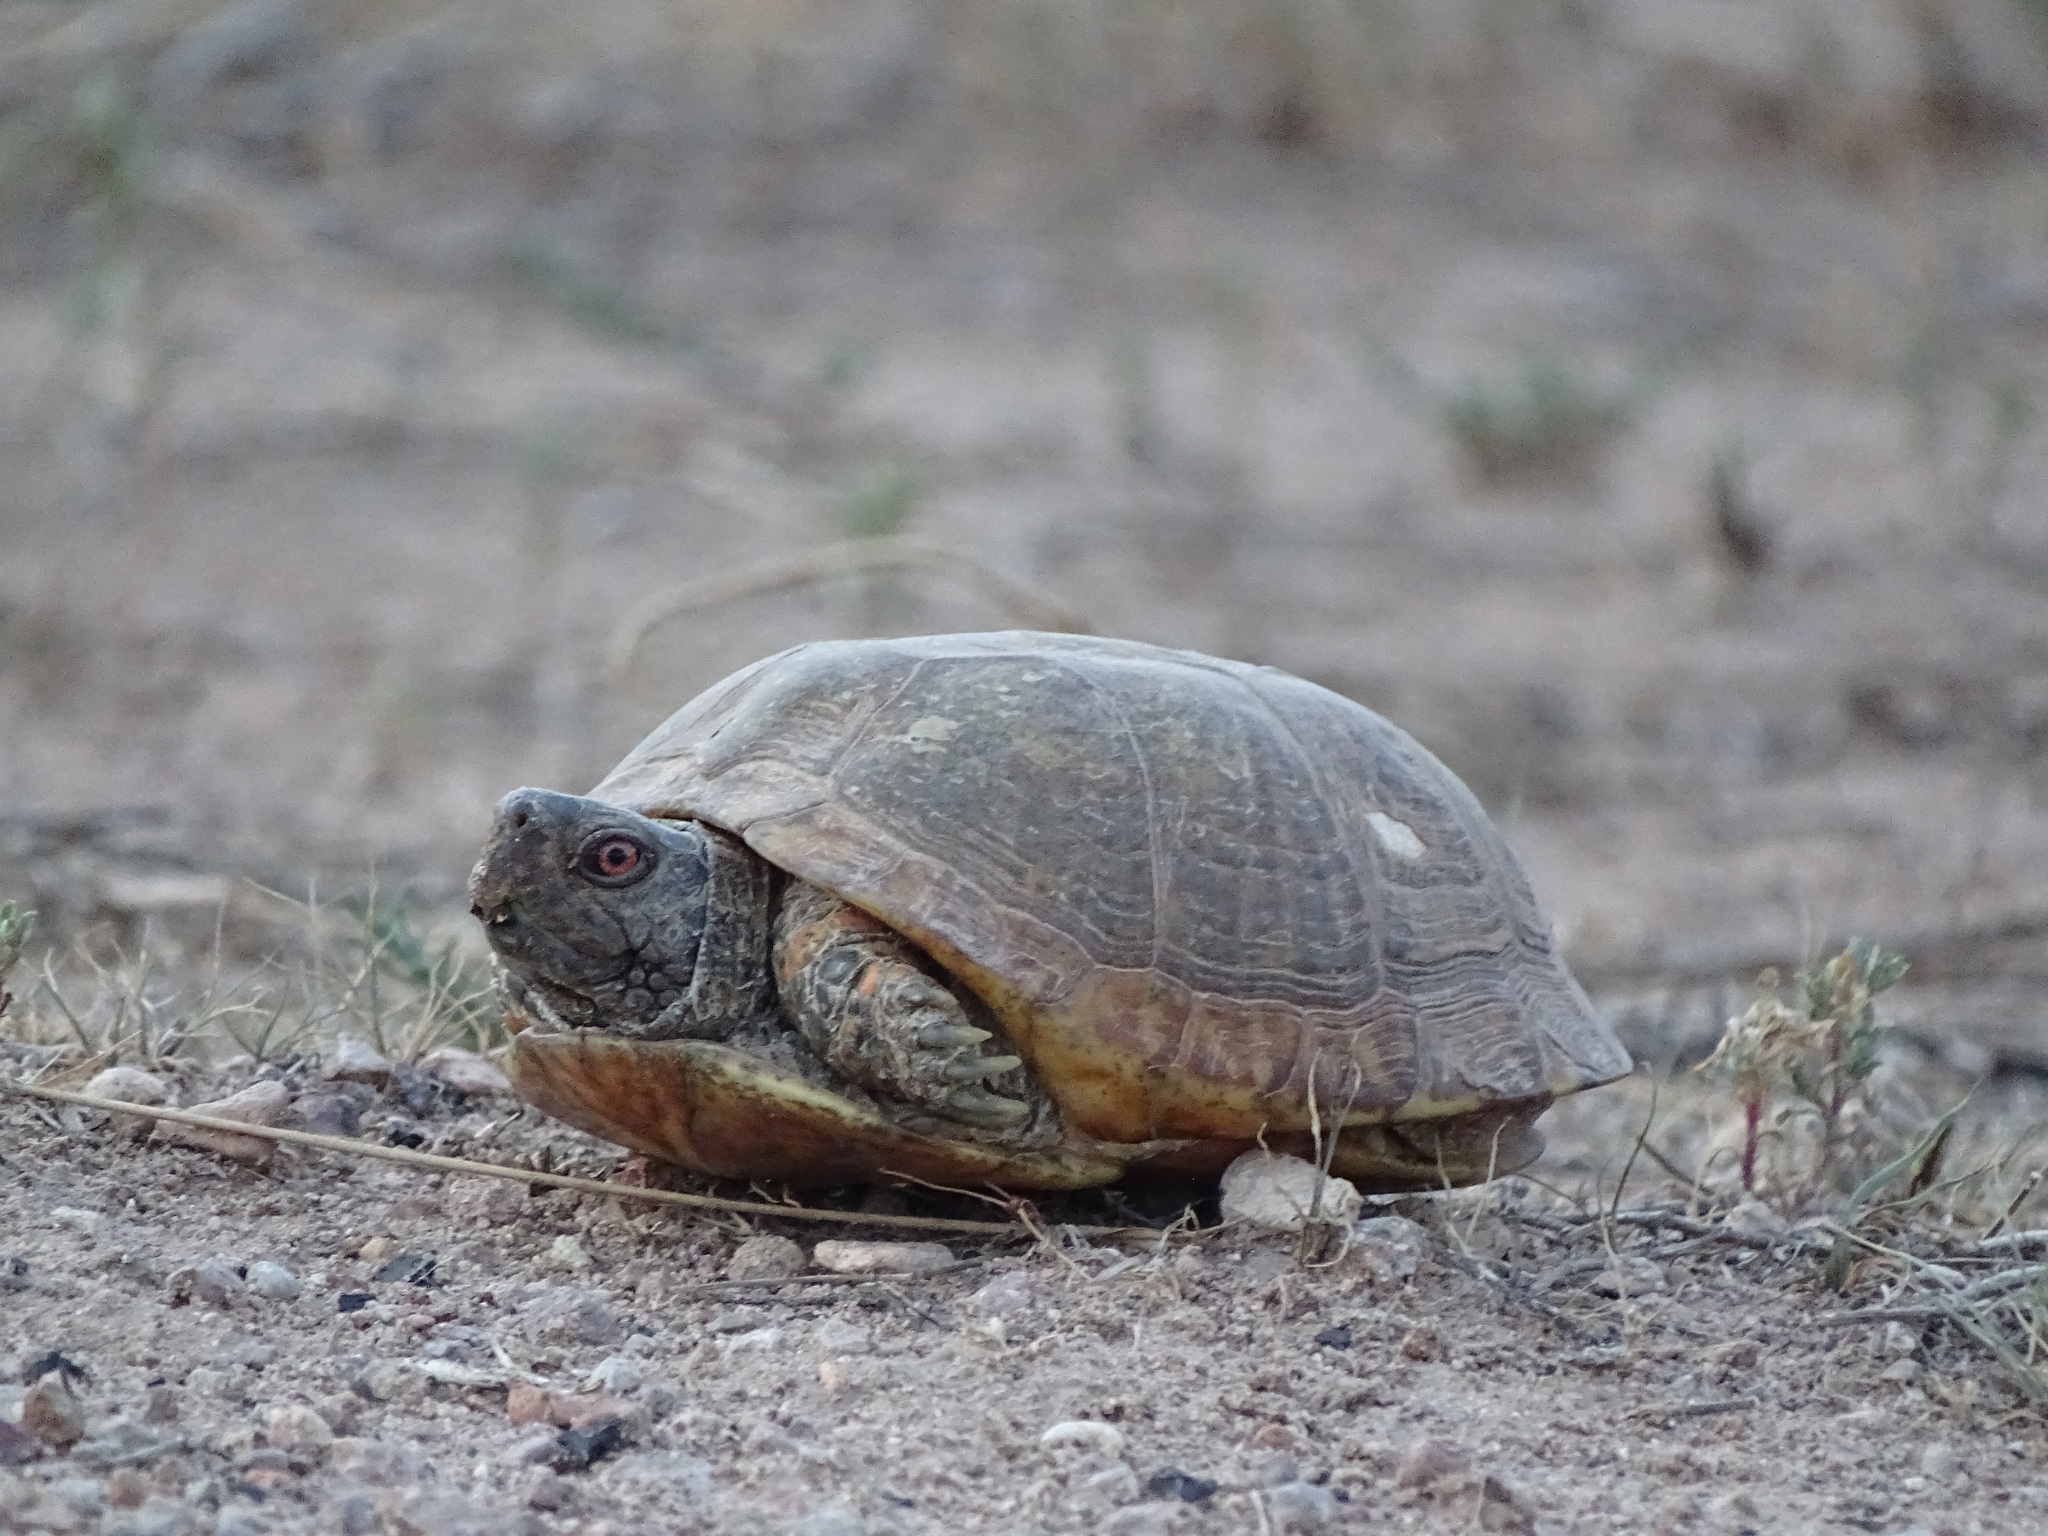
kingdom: Animalia
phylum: Chordata
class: Testudines
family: Emydidae
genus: Terrapene
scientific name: Terrapene ornata
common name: Western box turtle
